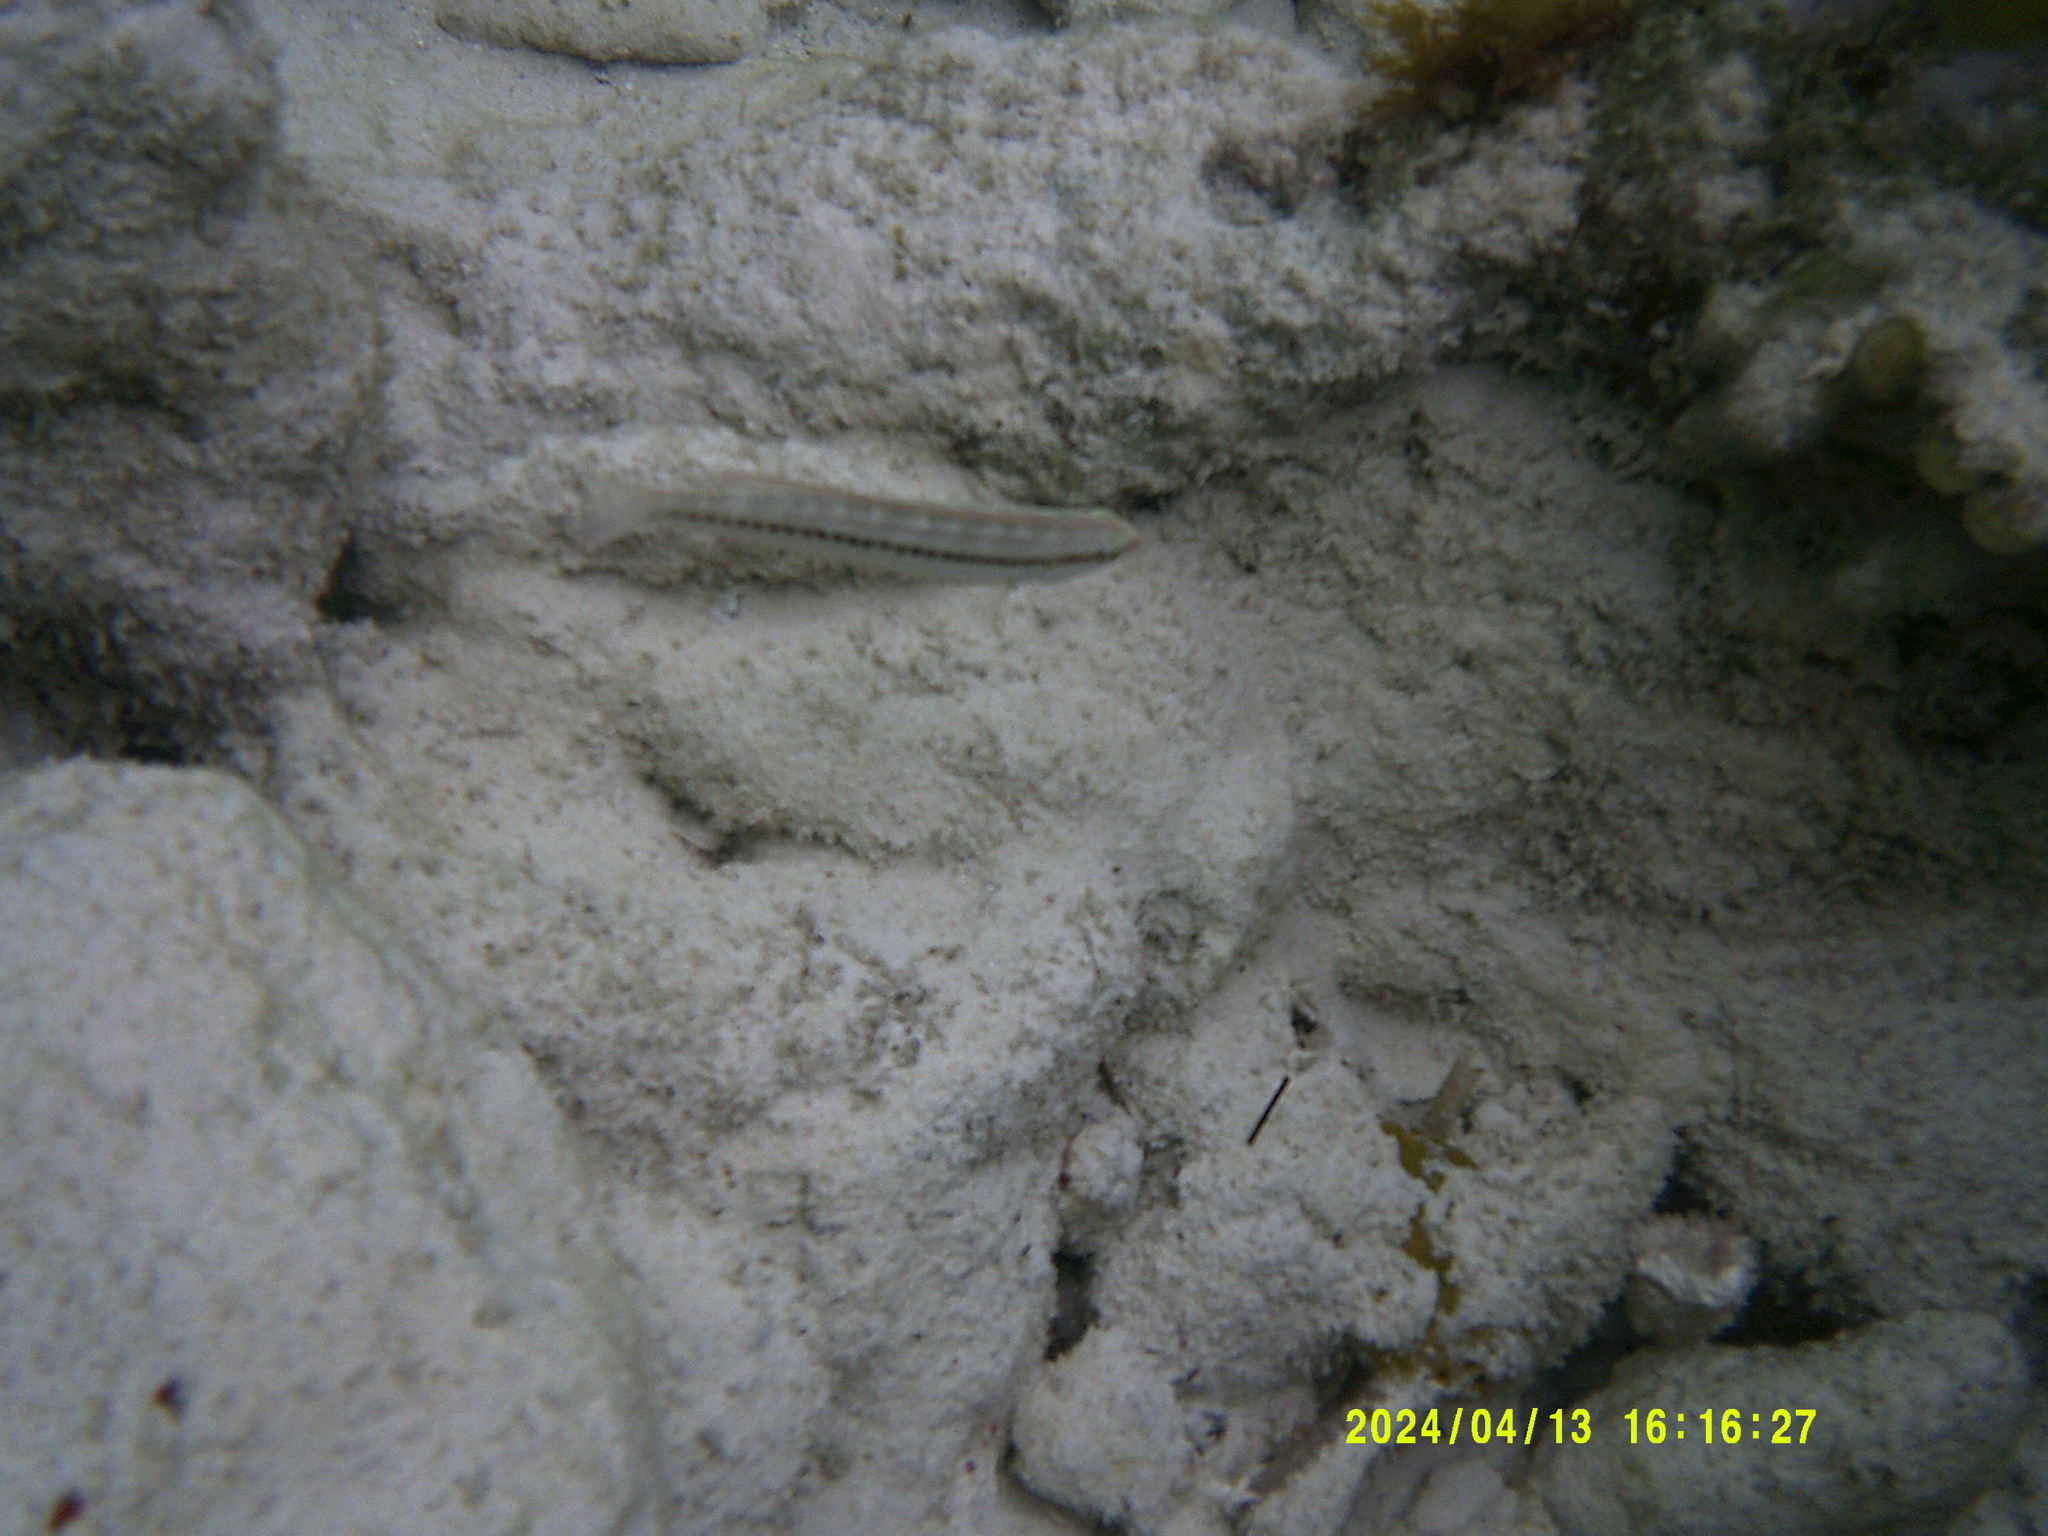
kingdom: Animalia
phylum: Chordata
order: Perciformes
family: Labridae
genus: Halichoeres
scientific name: Halichoeres bivittatus
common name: Slippery dick
